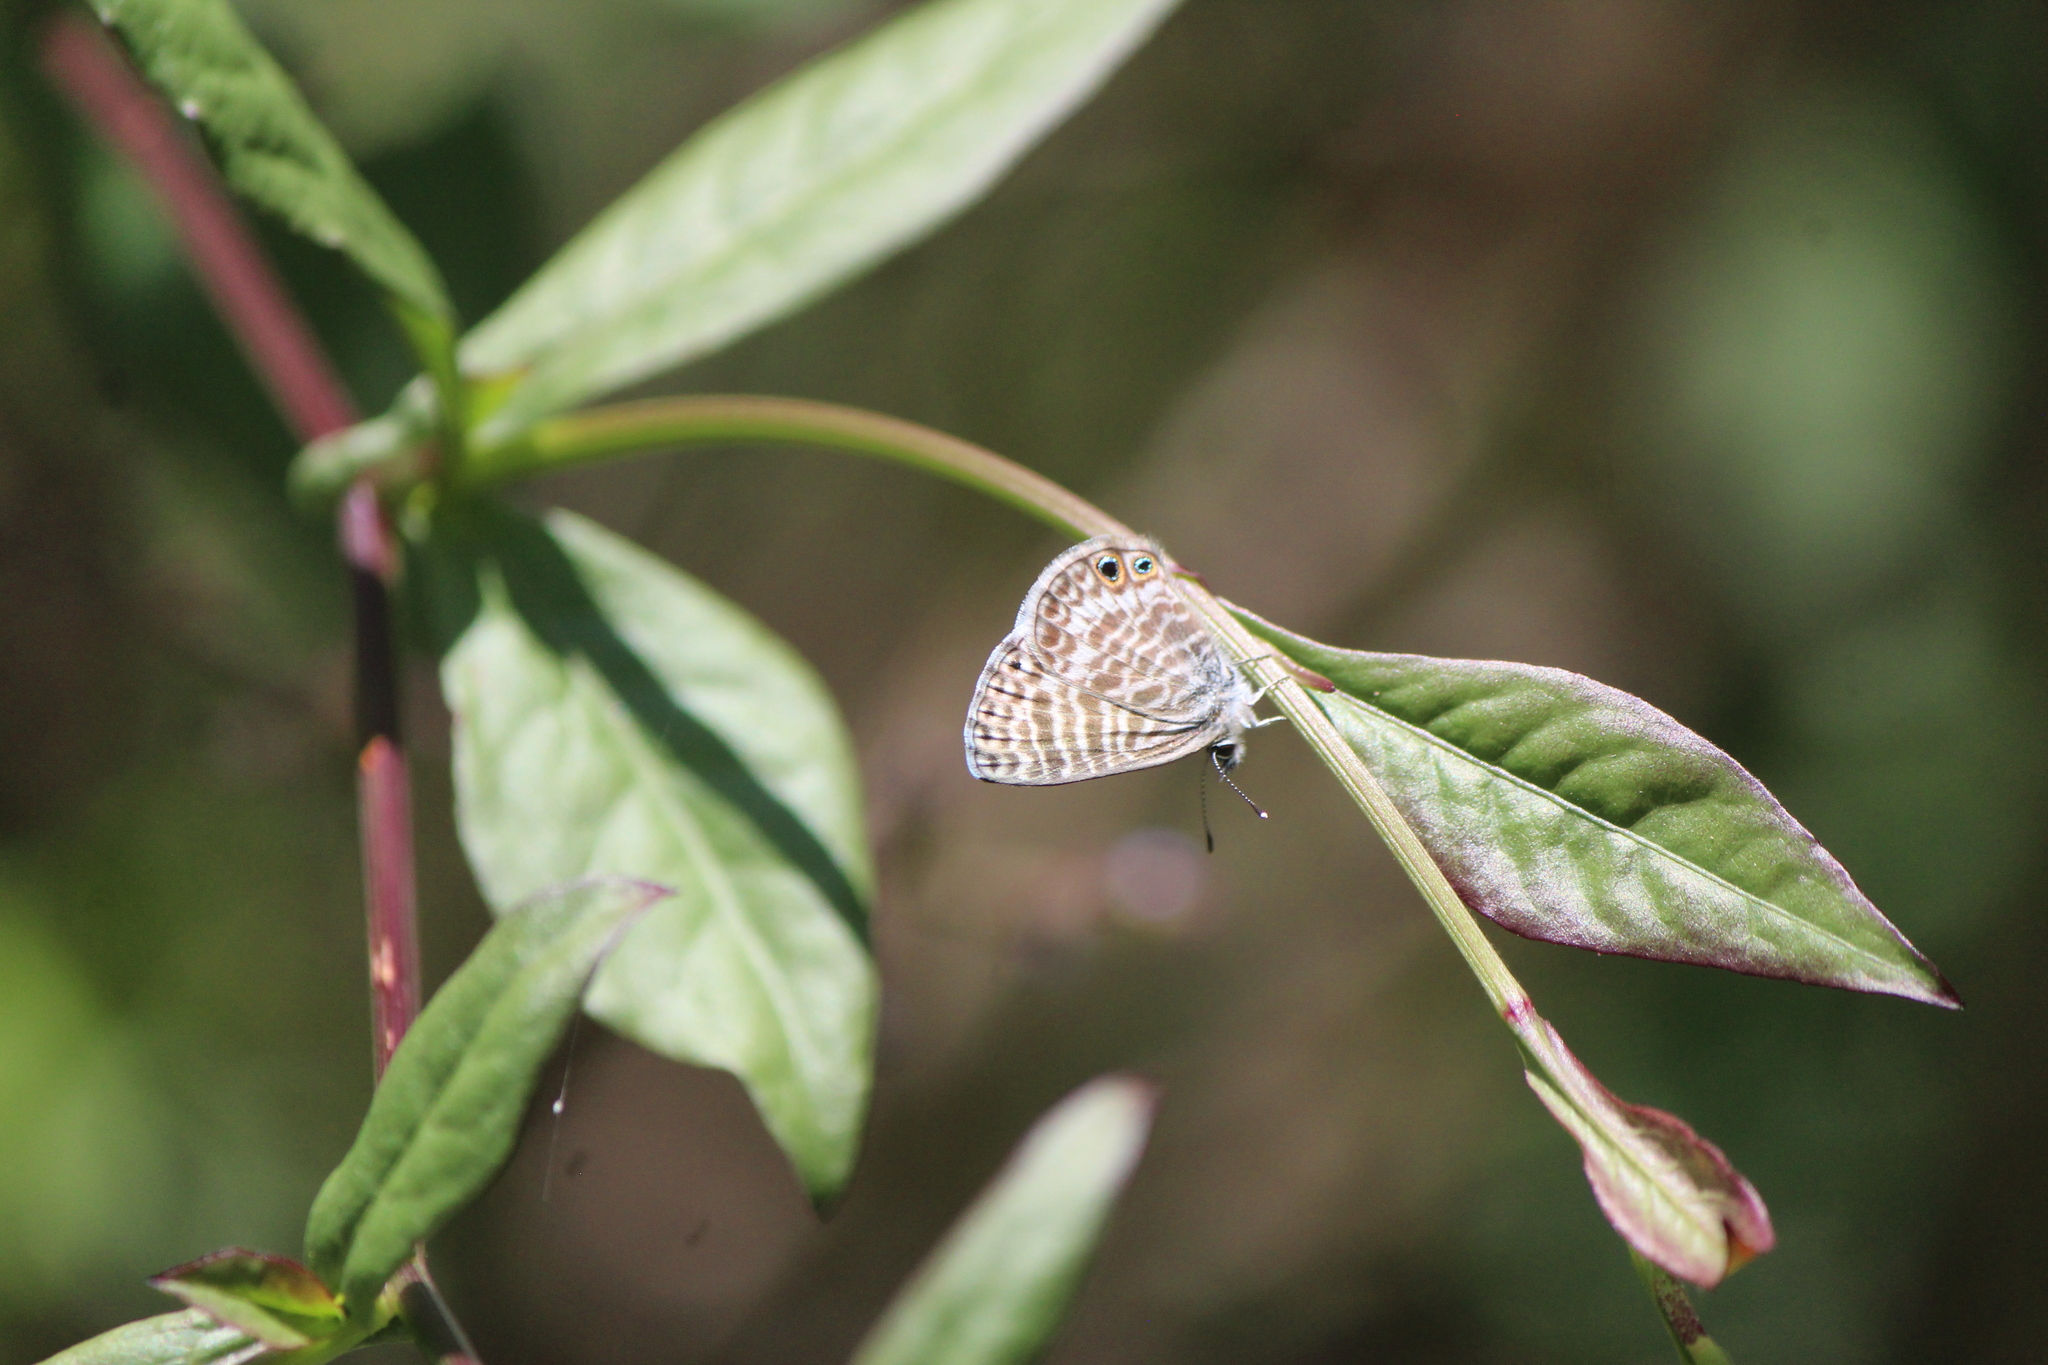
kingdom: Animalia
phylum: Arthropoda
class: Insecta
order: Lepidoptera
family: Lycaenidae
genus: Leptotes
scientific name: Leptotes marina
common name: Marine blue
